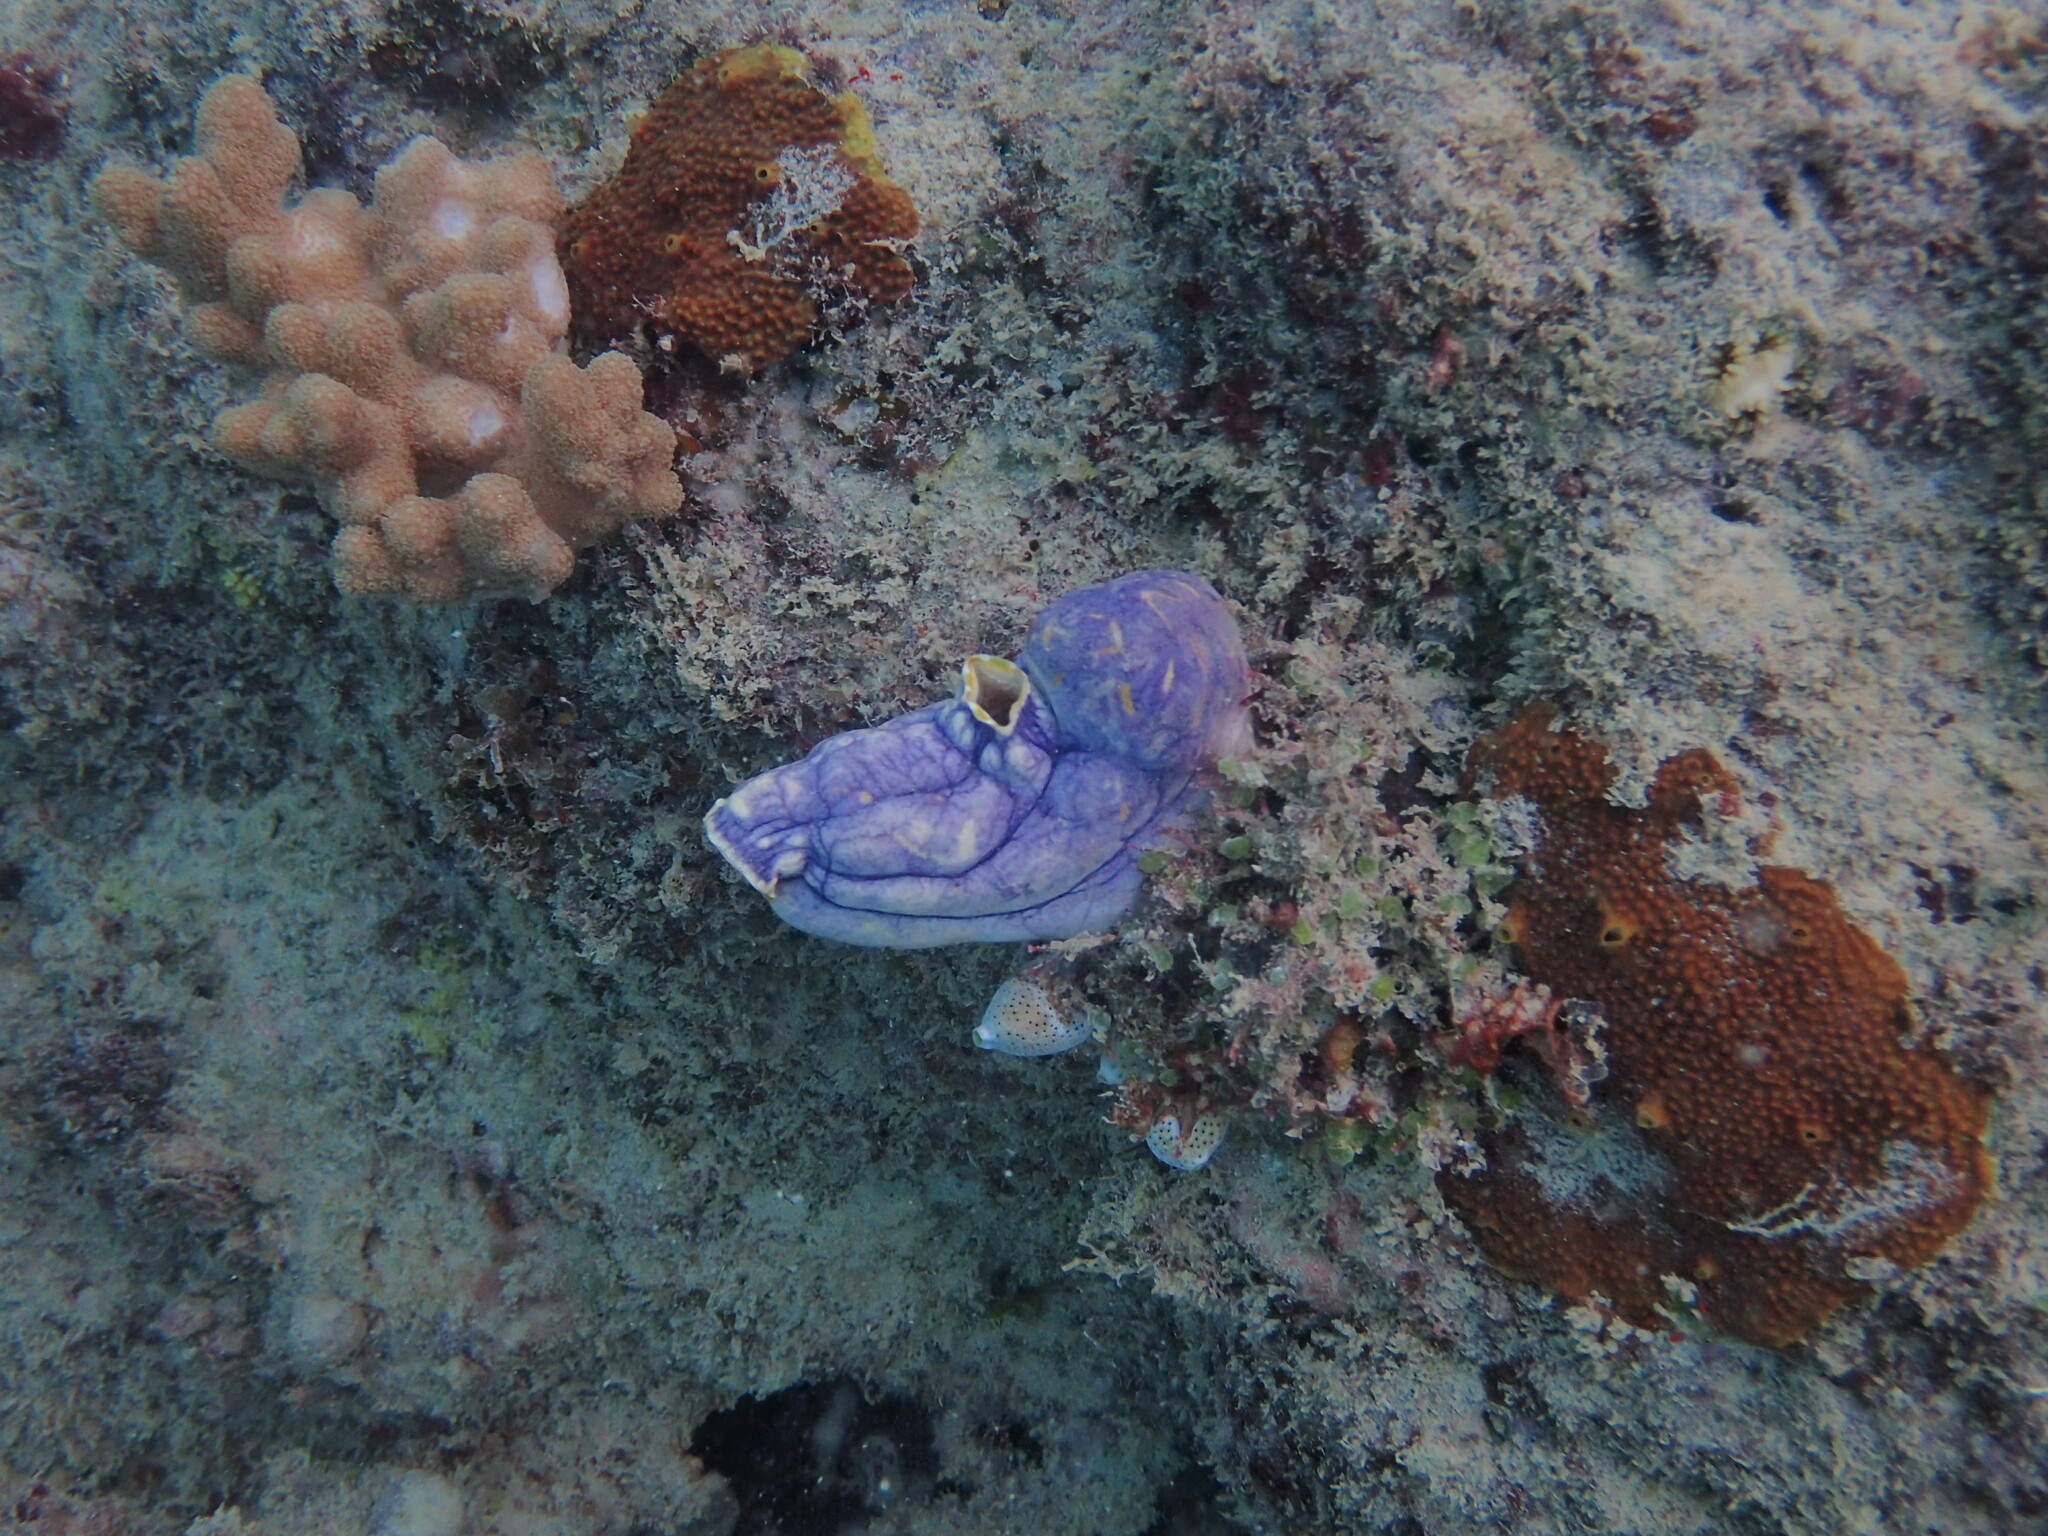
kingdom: Animalia
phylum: Chordata
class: Ascidiacea
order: Stolidobranchia
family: Styelidae
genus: Polycarpa
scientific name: Polycarpa aurata
